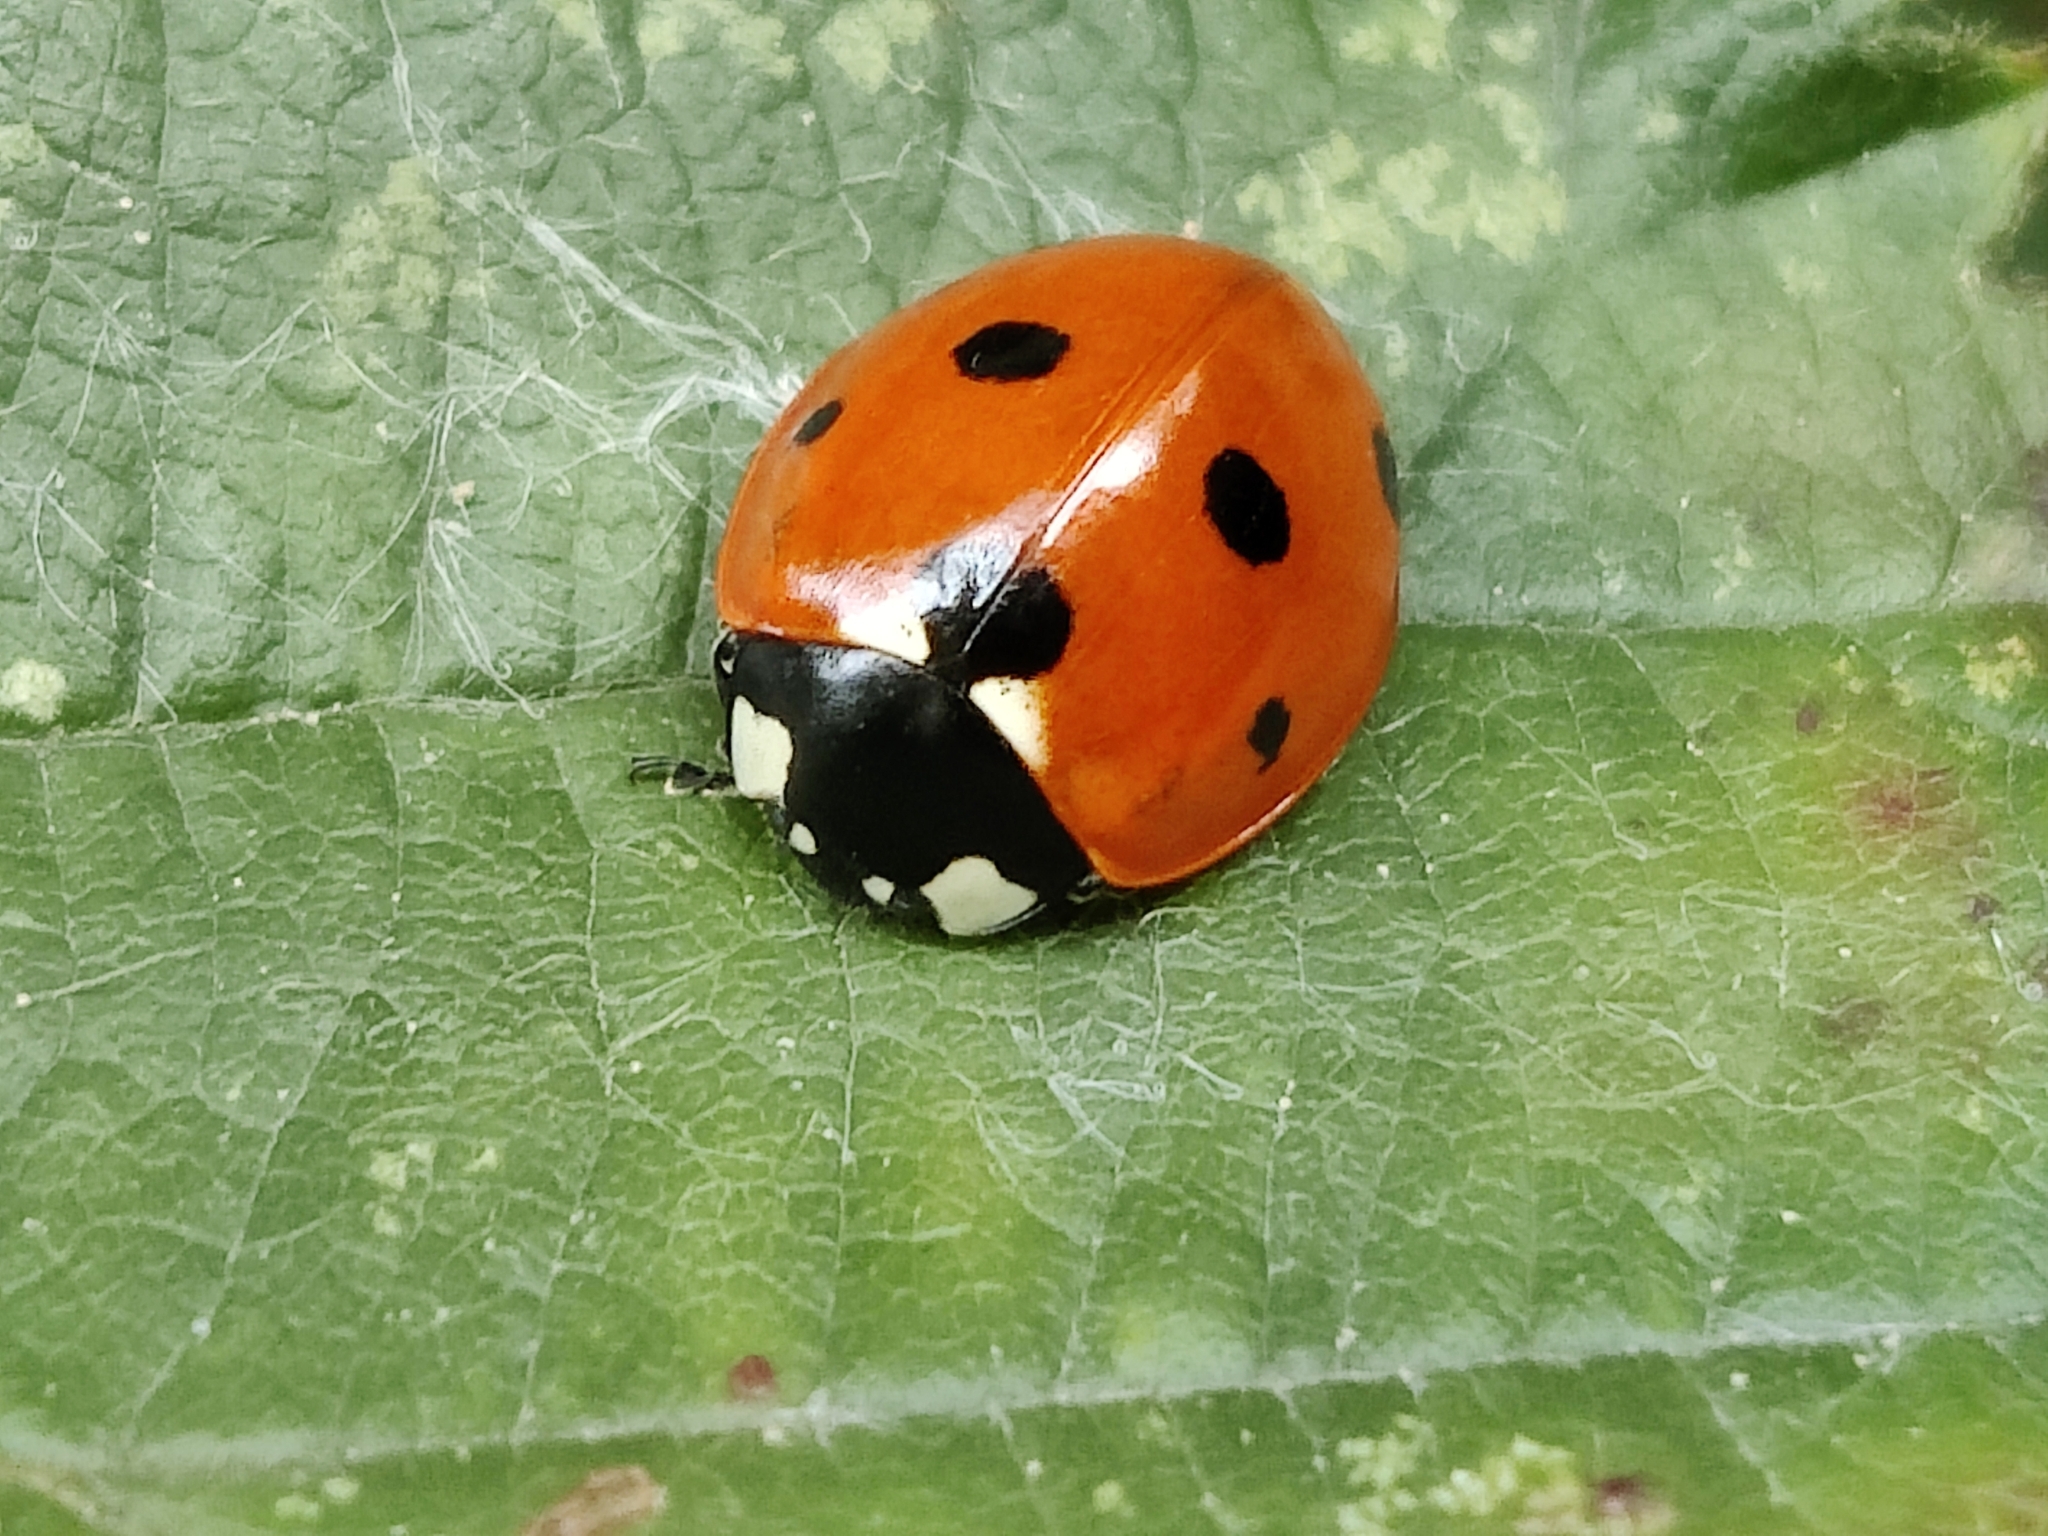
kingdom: Animalia
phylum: Arthropoda
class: Insecta
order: Coleoptera
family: Coccinellidae
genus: Coccinella
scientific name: Coccinella septempunctata
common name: Sevenspotted lady beetle
